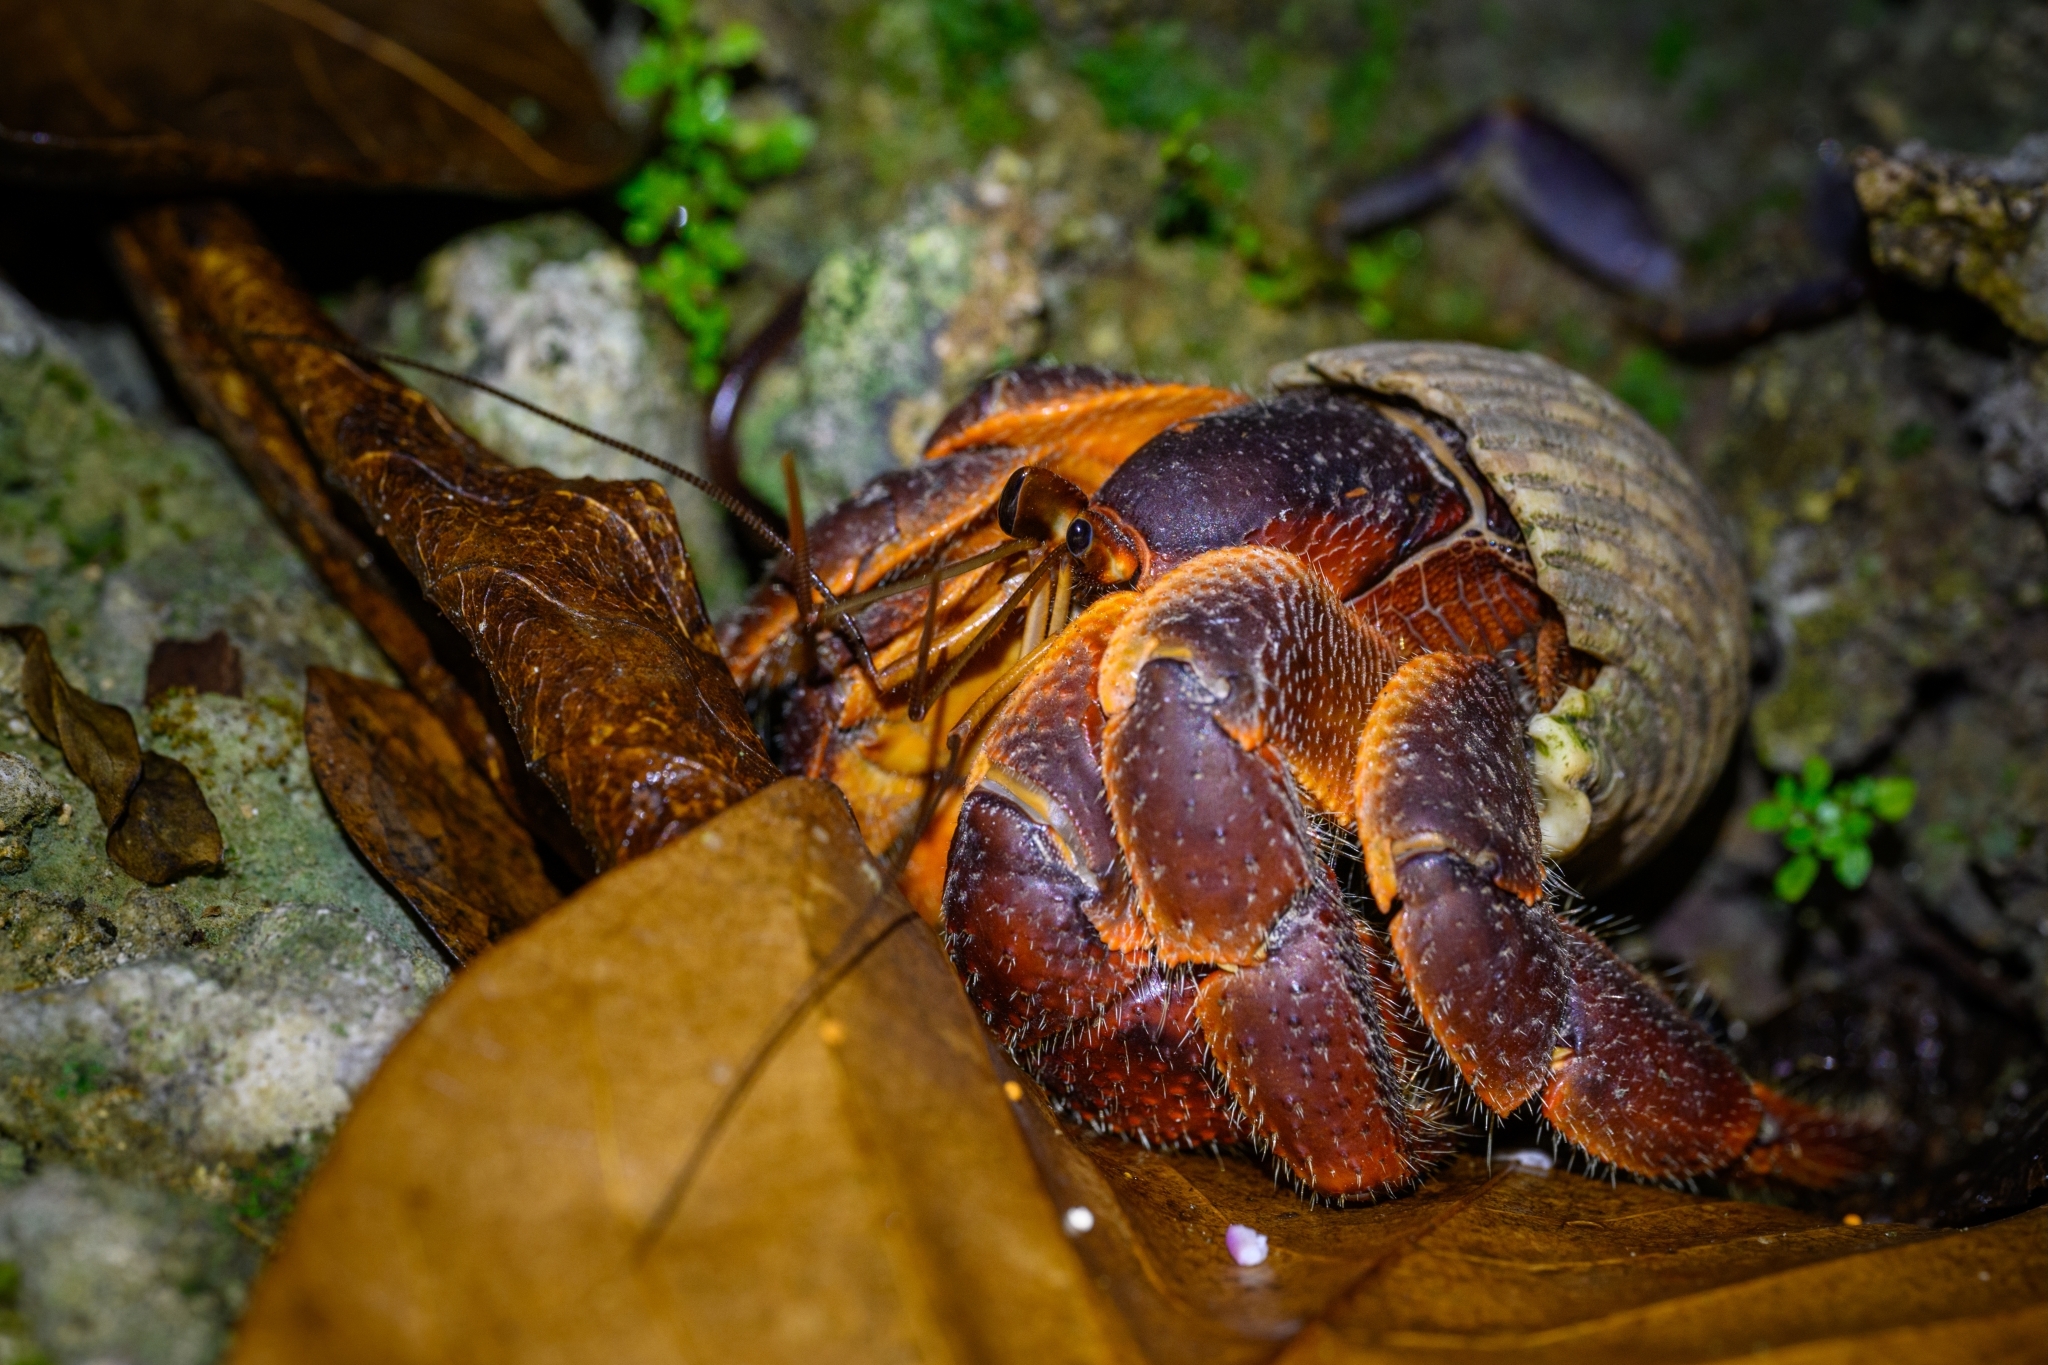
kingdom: Animalia
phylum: Arthropoda
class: Malacostraca
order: Decapoda
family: Coenobitidae
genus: Coenobita
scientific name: Coenobita spinosus
